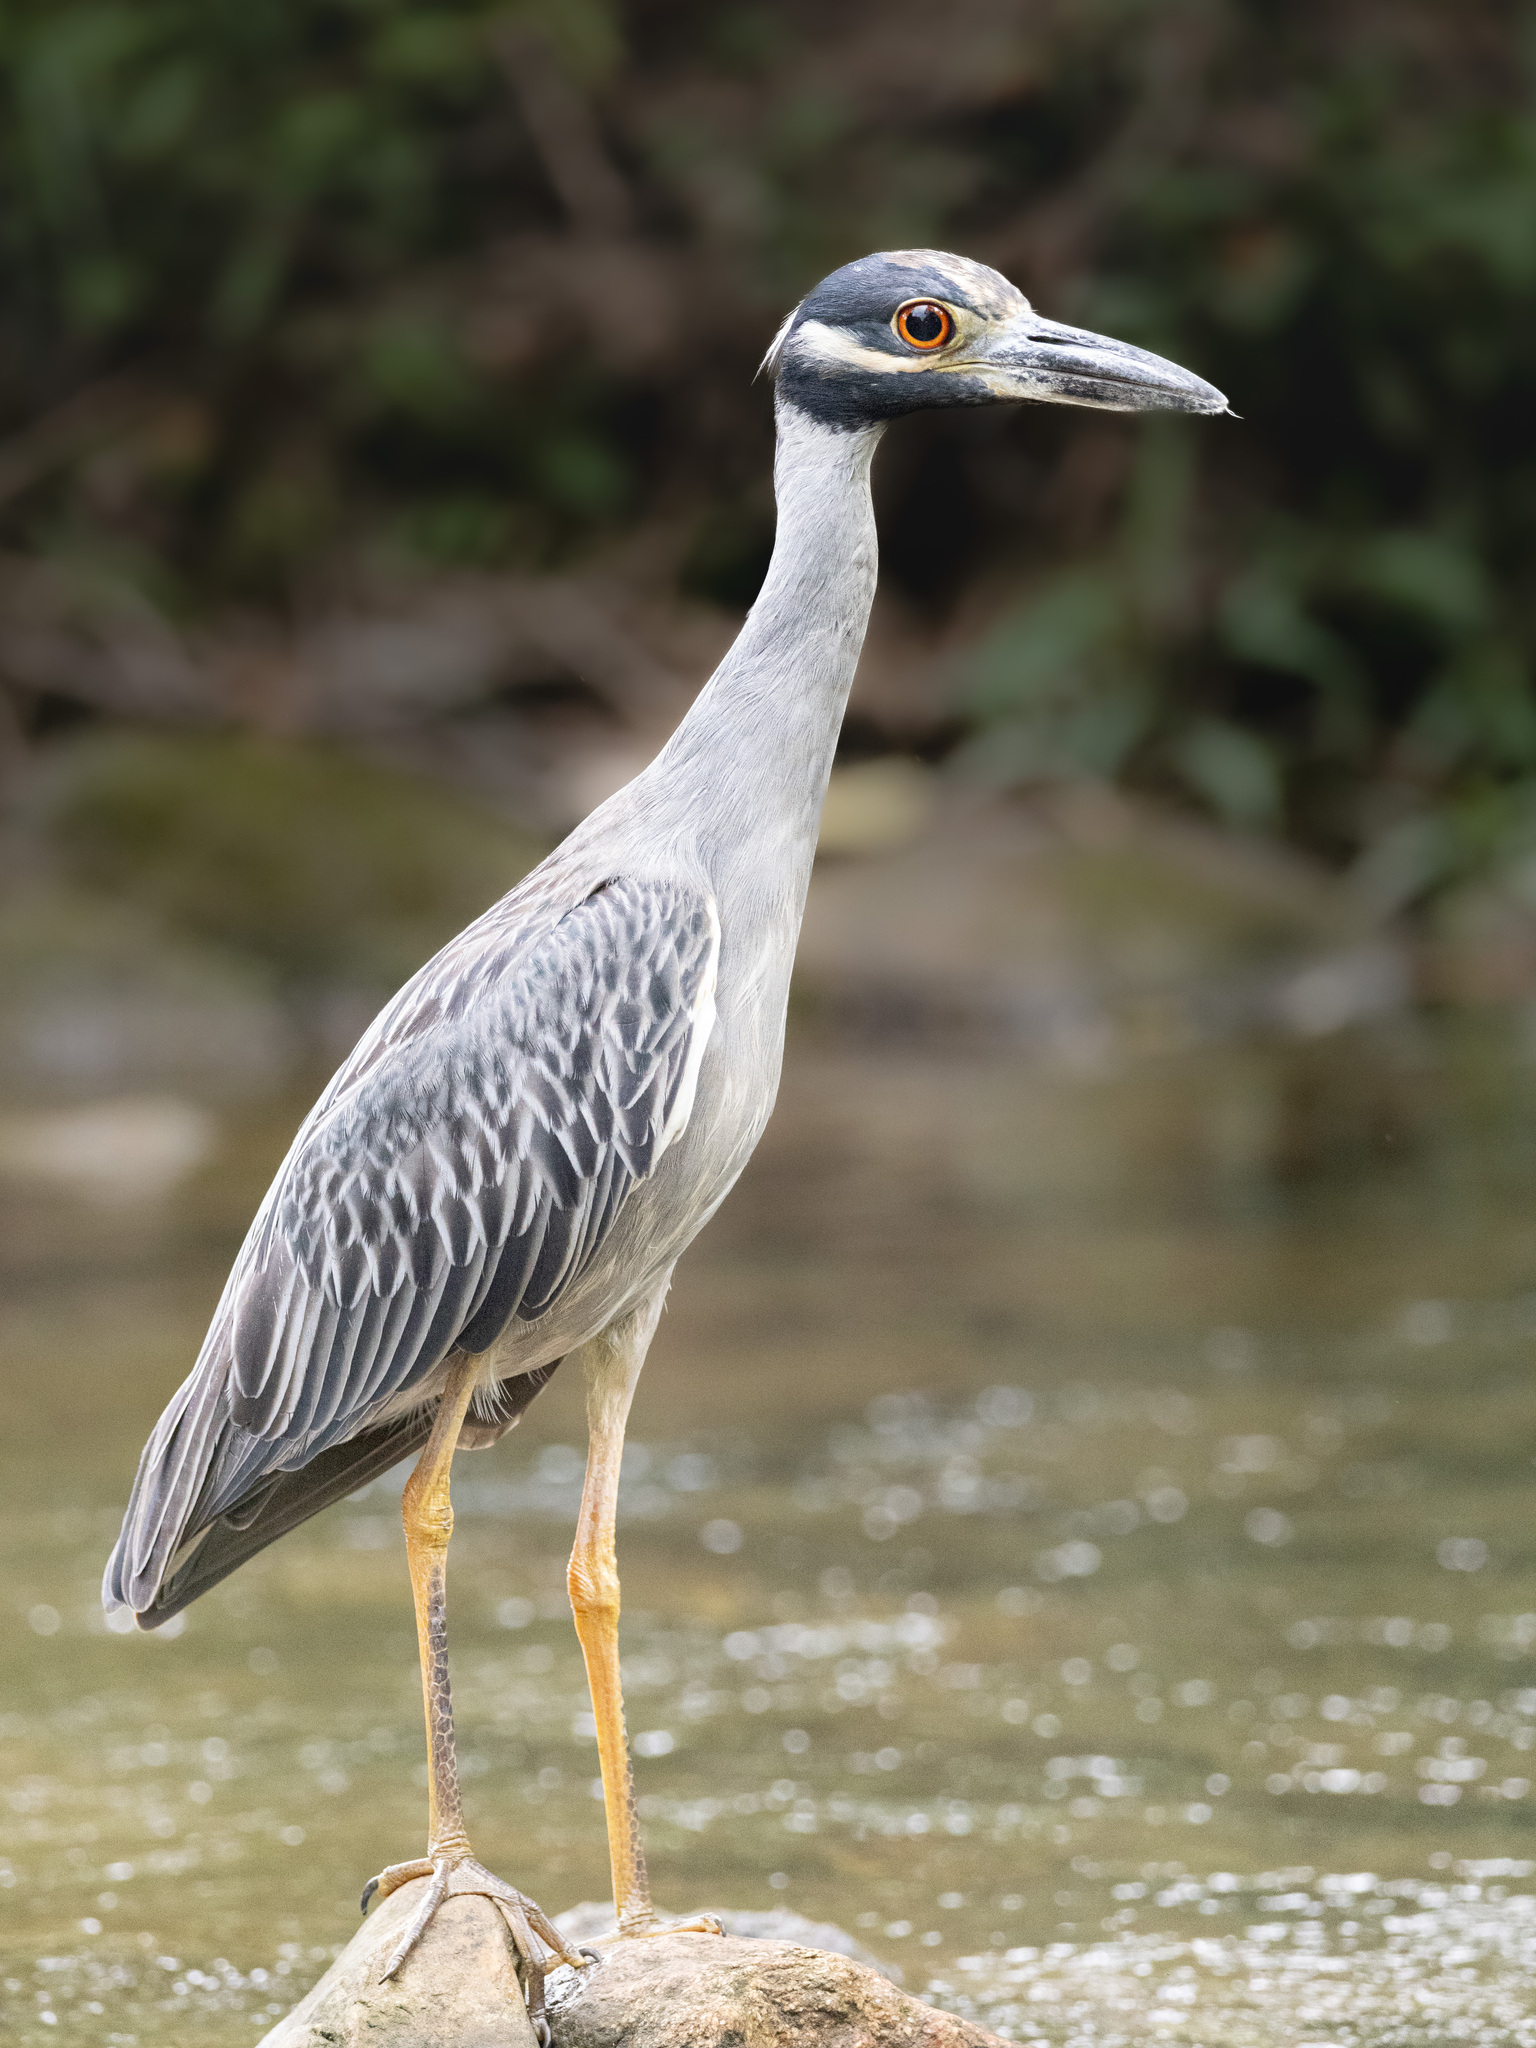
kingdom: Animalia
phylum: Chordata
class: Aves
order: Pelecaniformes
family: Ardeidae
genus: Nyctanassa
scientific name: Nyctanassa violacea
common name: Yellow-crowned night heron
